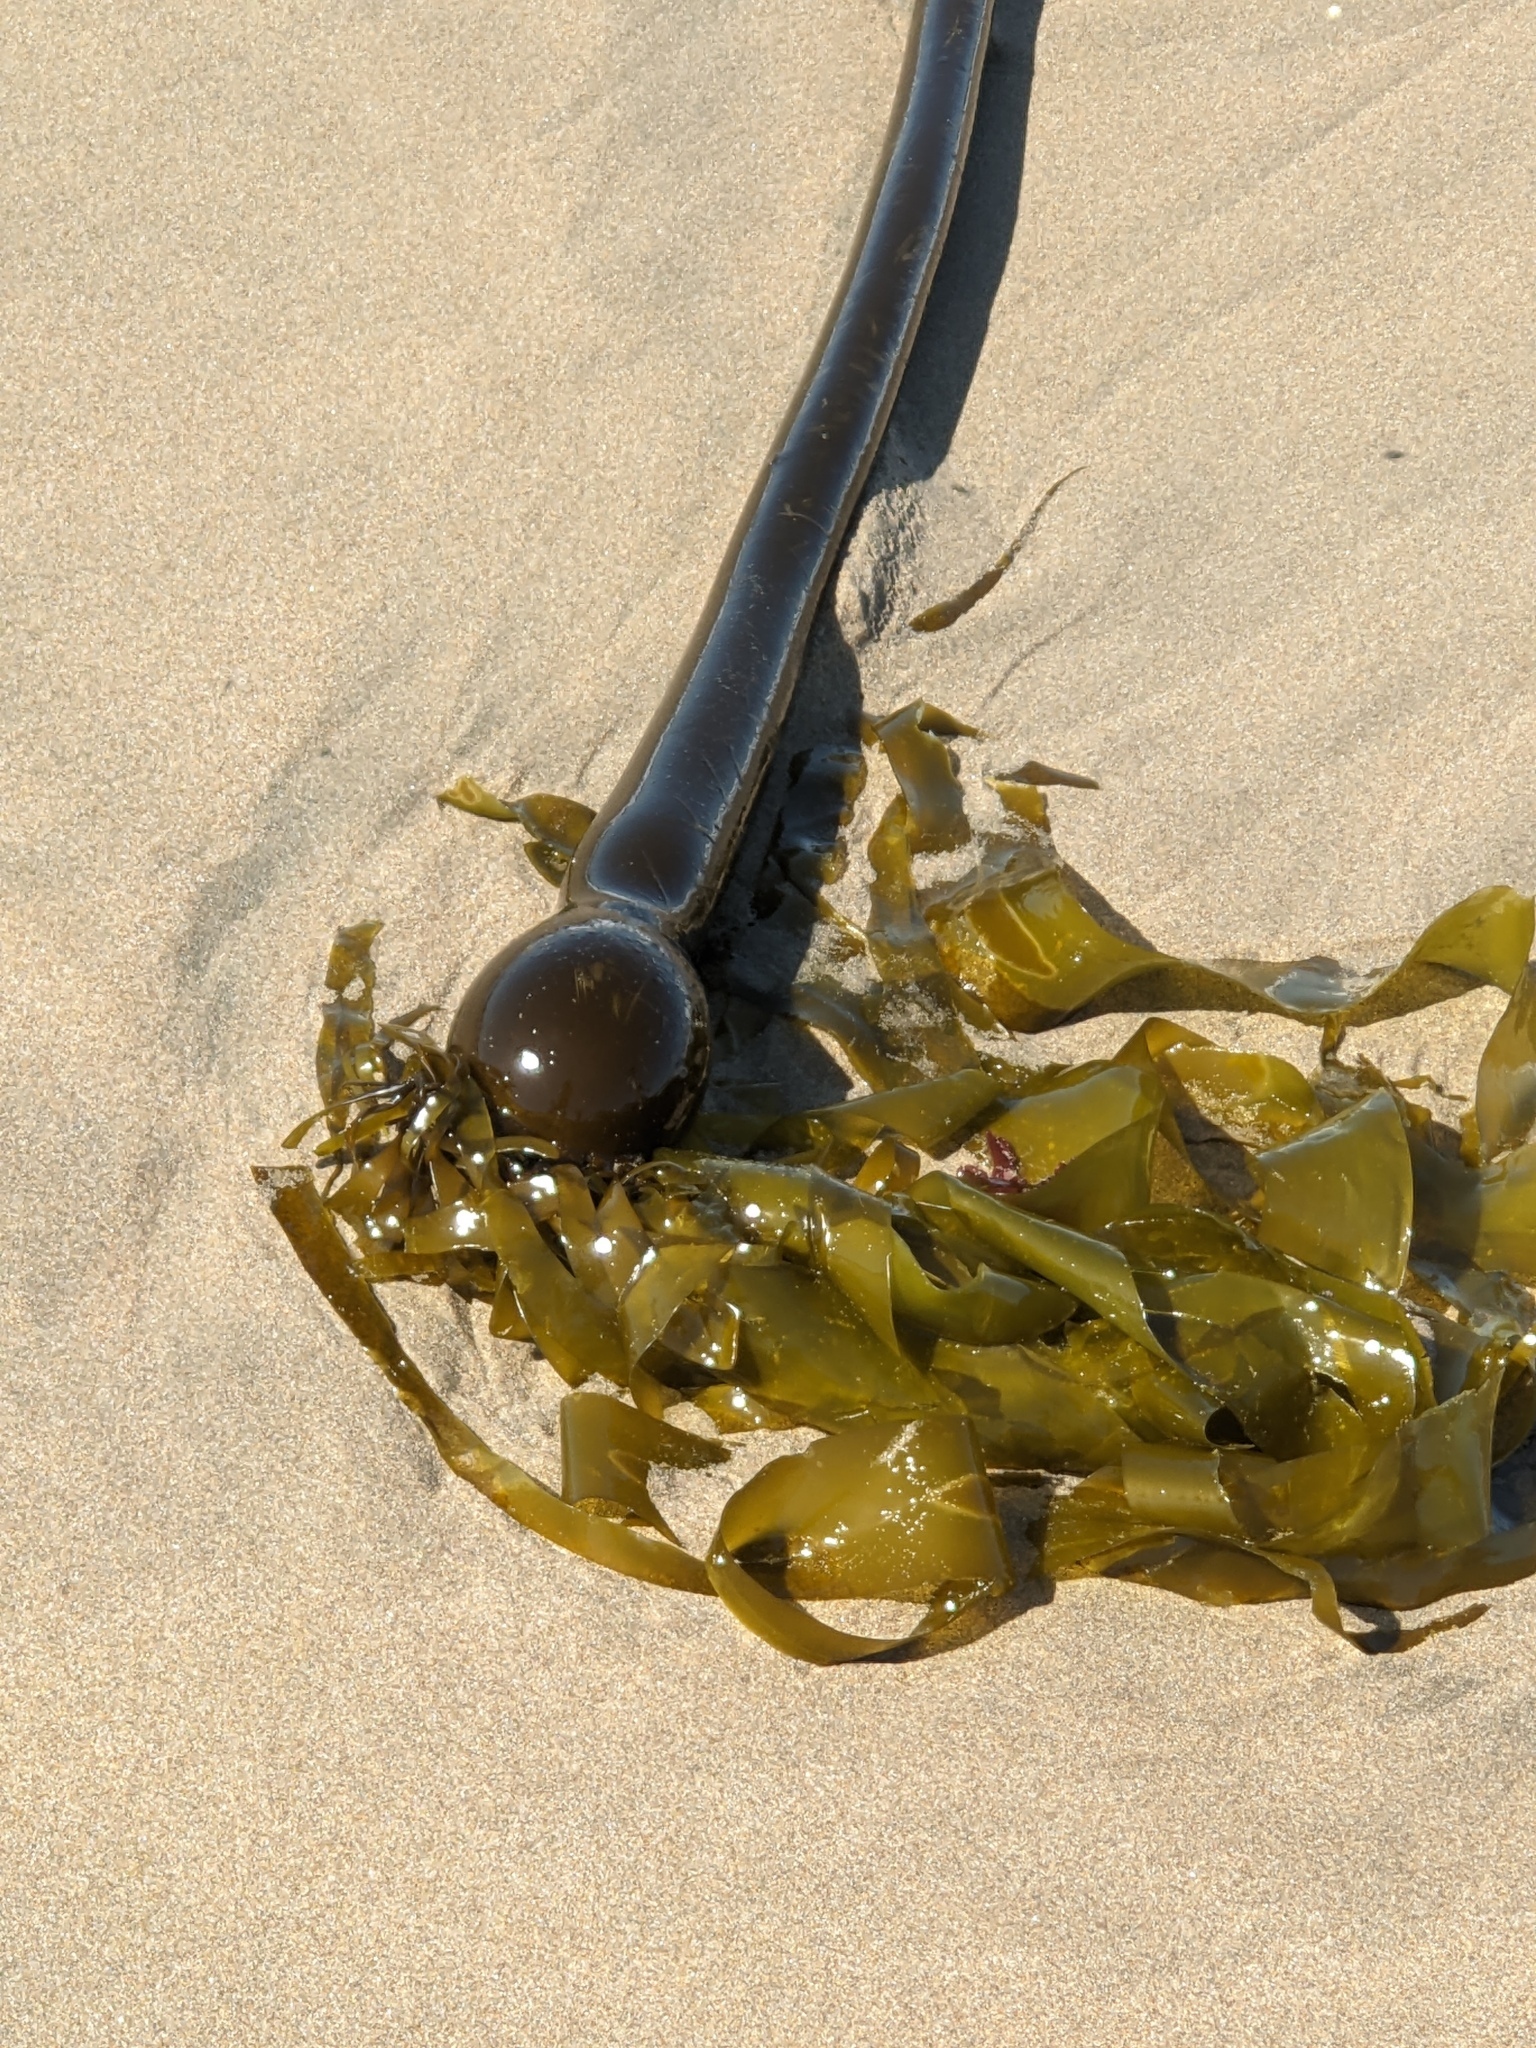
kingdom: Chromista
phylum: Ochrophyta
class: Phaeophyceae
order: Laminariales
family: Laminariaceae
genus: Nereocystis
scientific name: Nereocystis luetkeana
